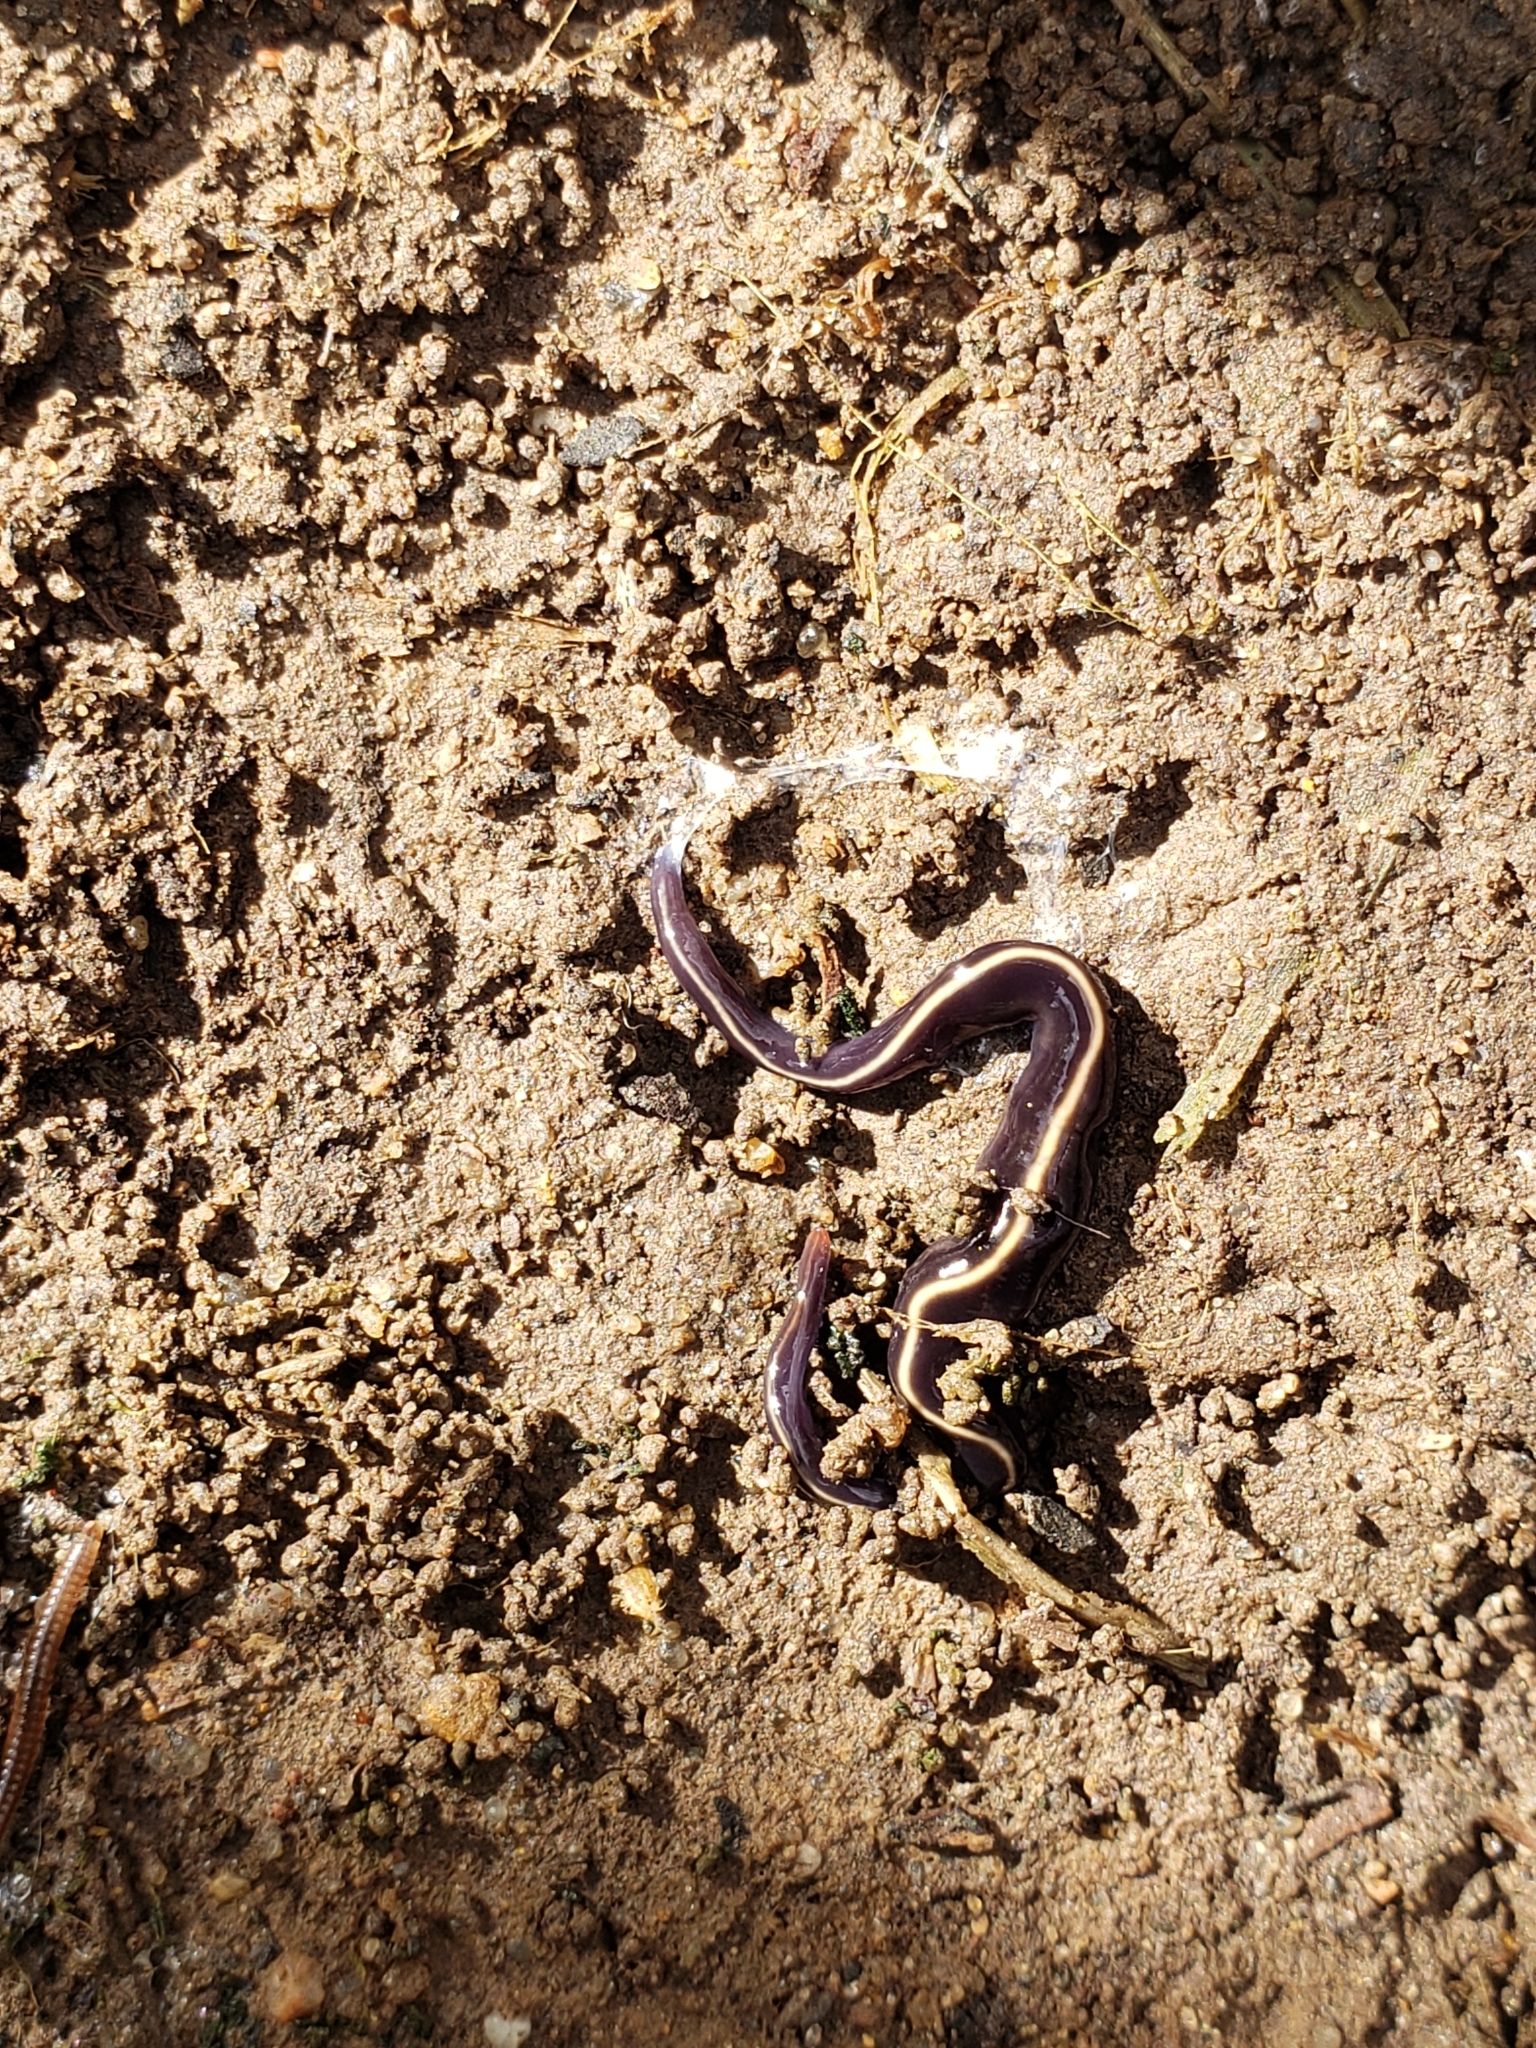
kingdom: Animalia
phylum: Platyhelminthes
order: Tricladida
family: Geoplanidae
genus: Caenoplana
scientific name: Caenoplana coerulea
